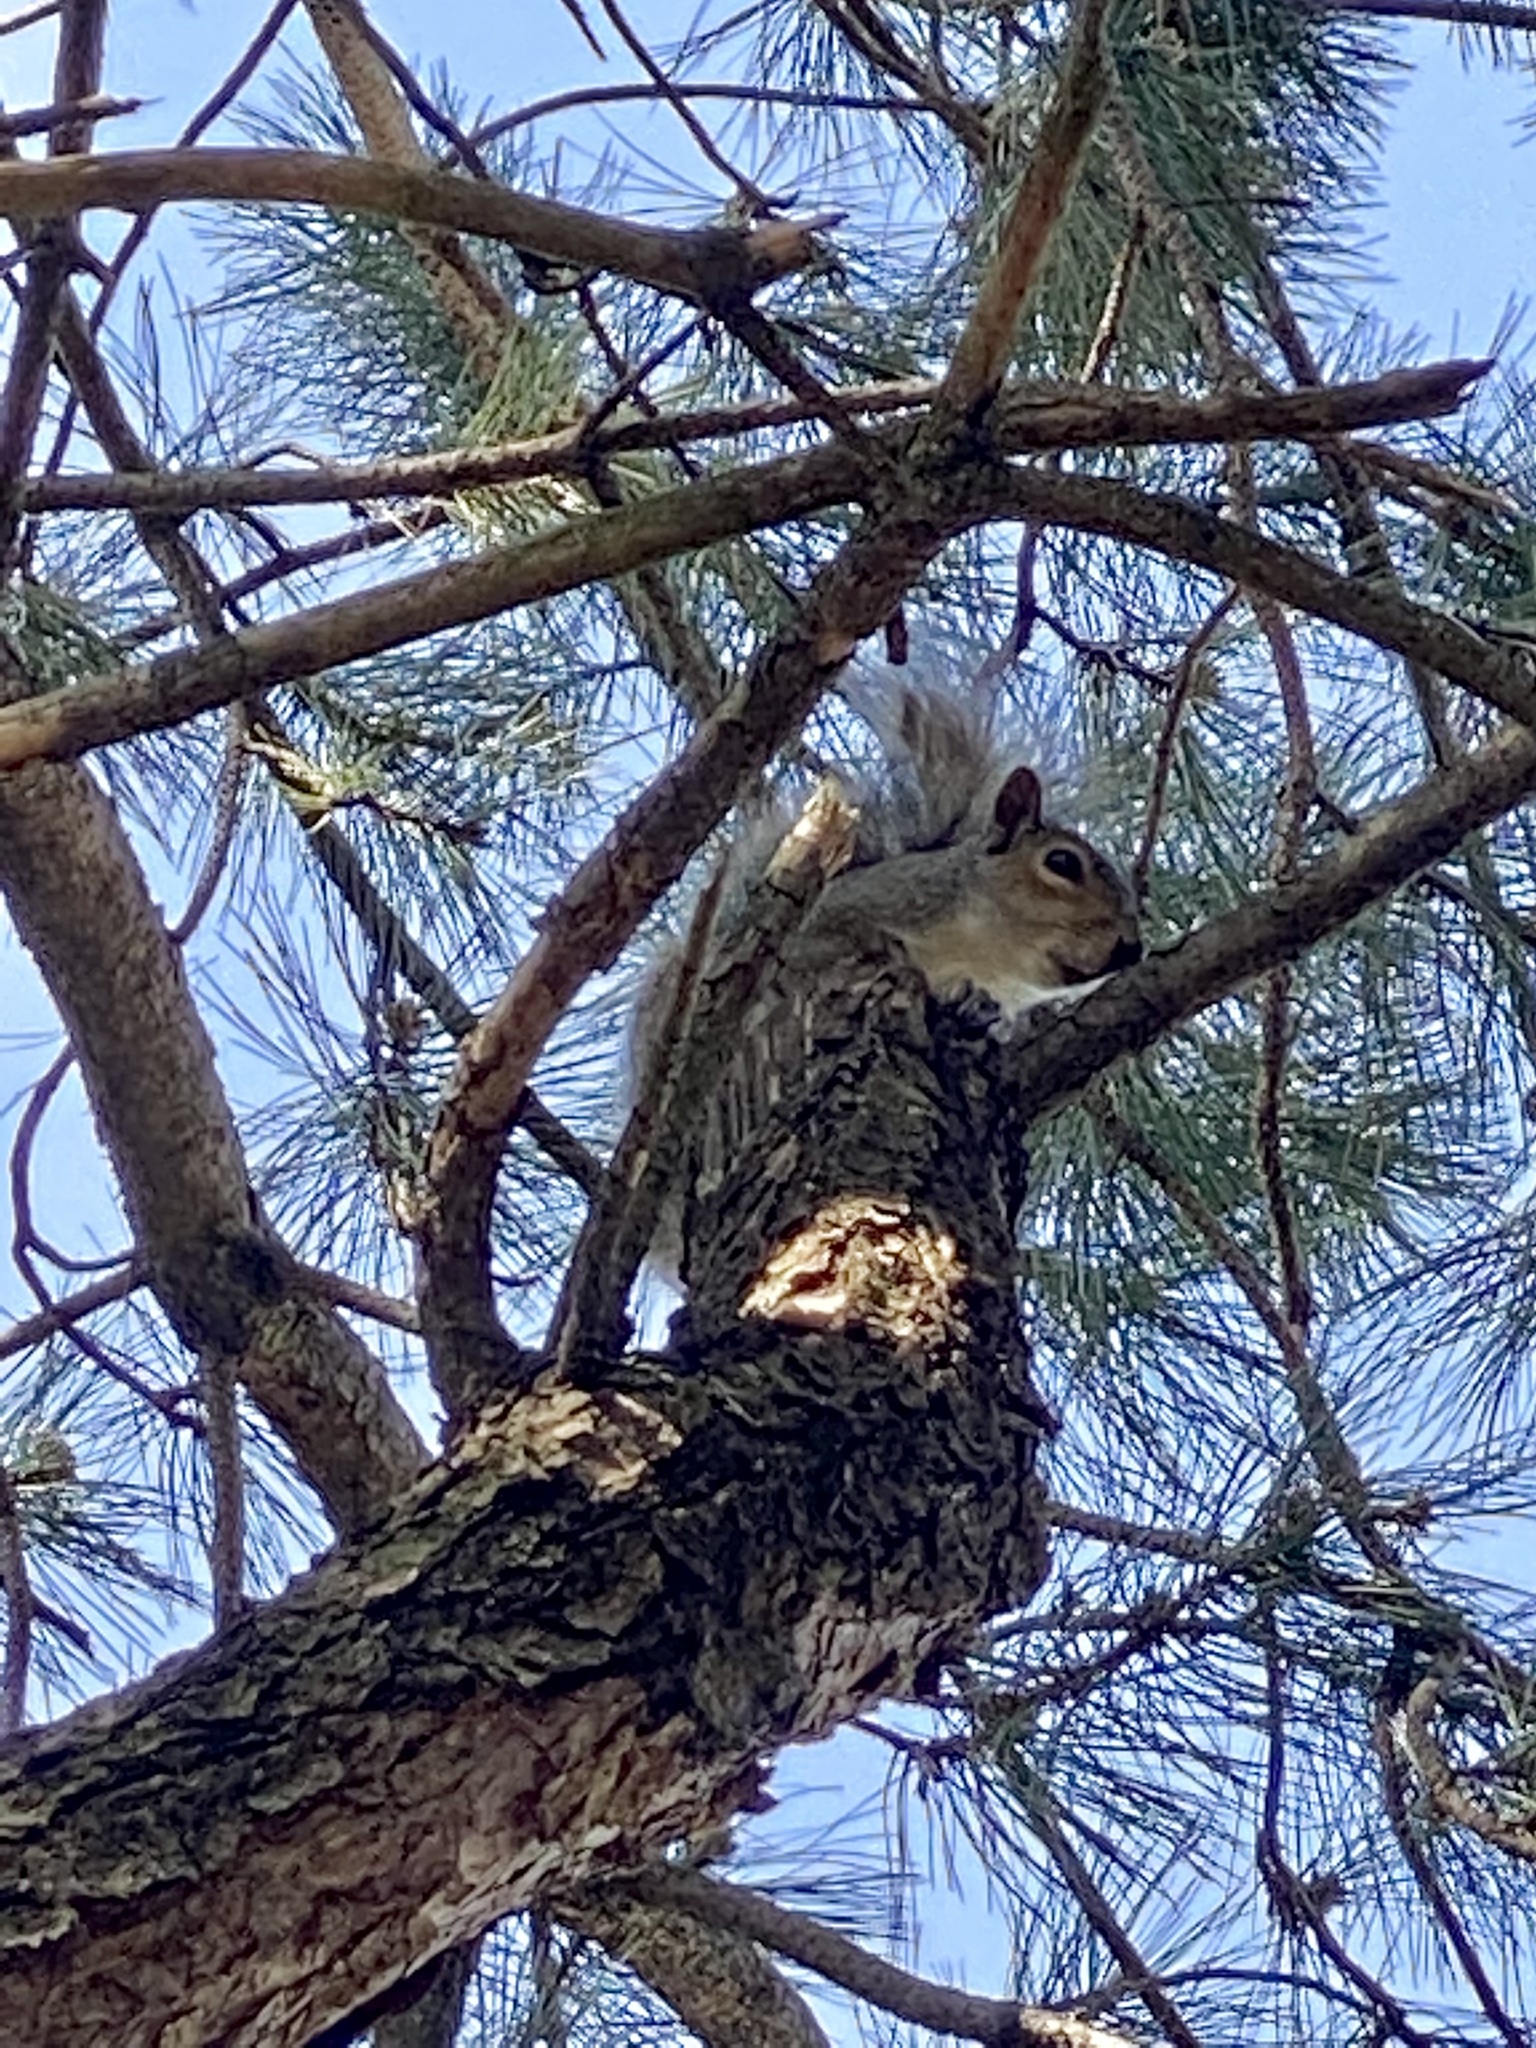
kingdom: Animalia
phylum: Chordata
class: Mammalia
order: Rodentia
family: Sciuridae
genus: Sciurus
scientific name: Sciurus carolinensis
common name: Eastern gray squirrel
